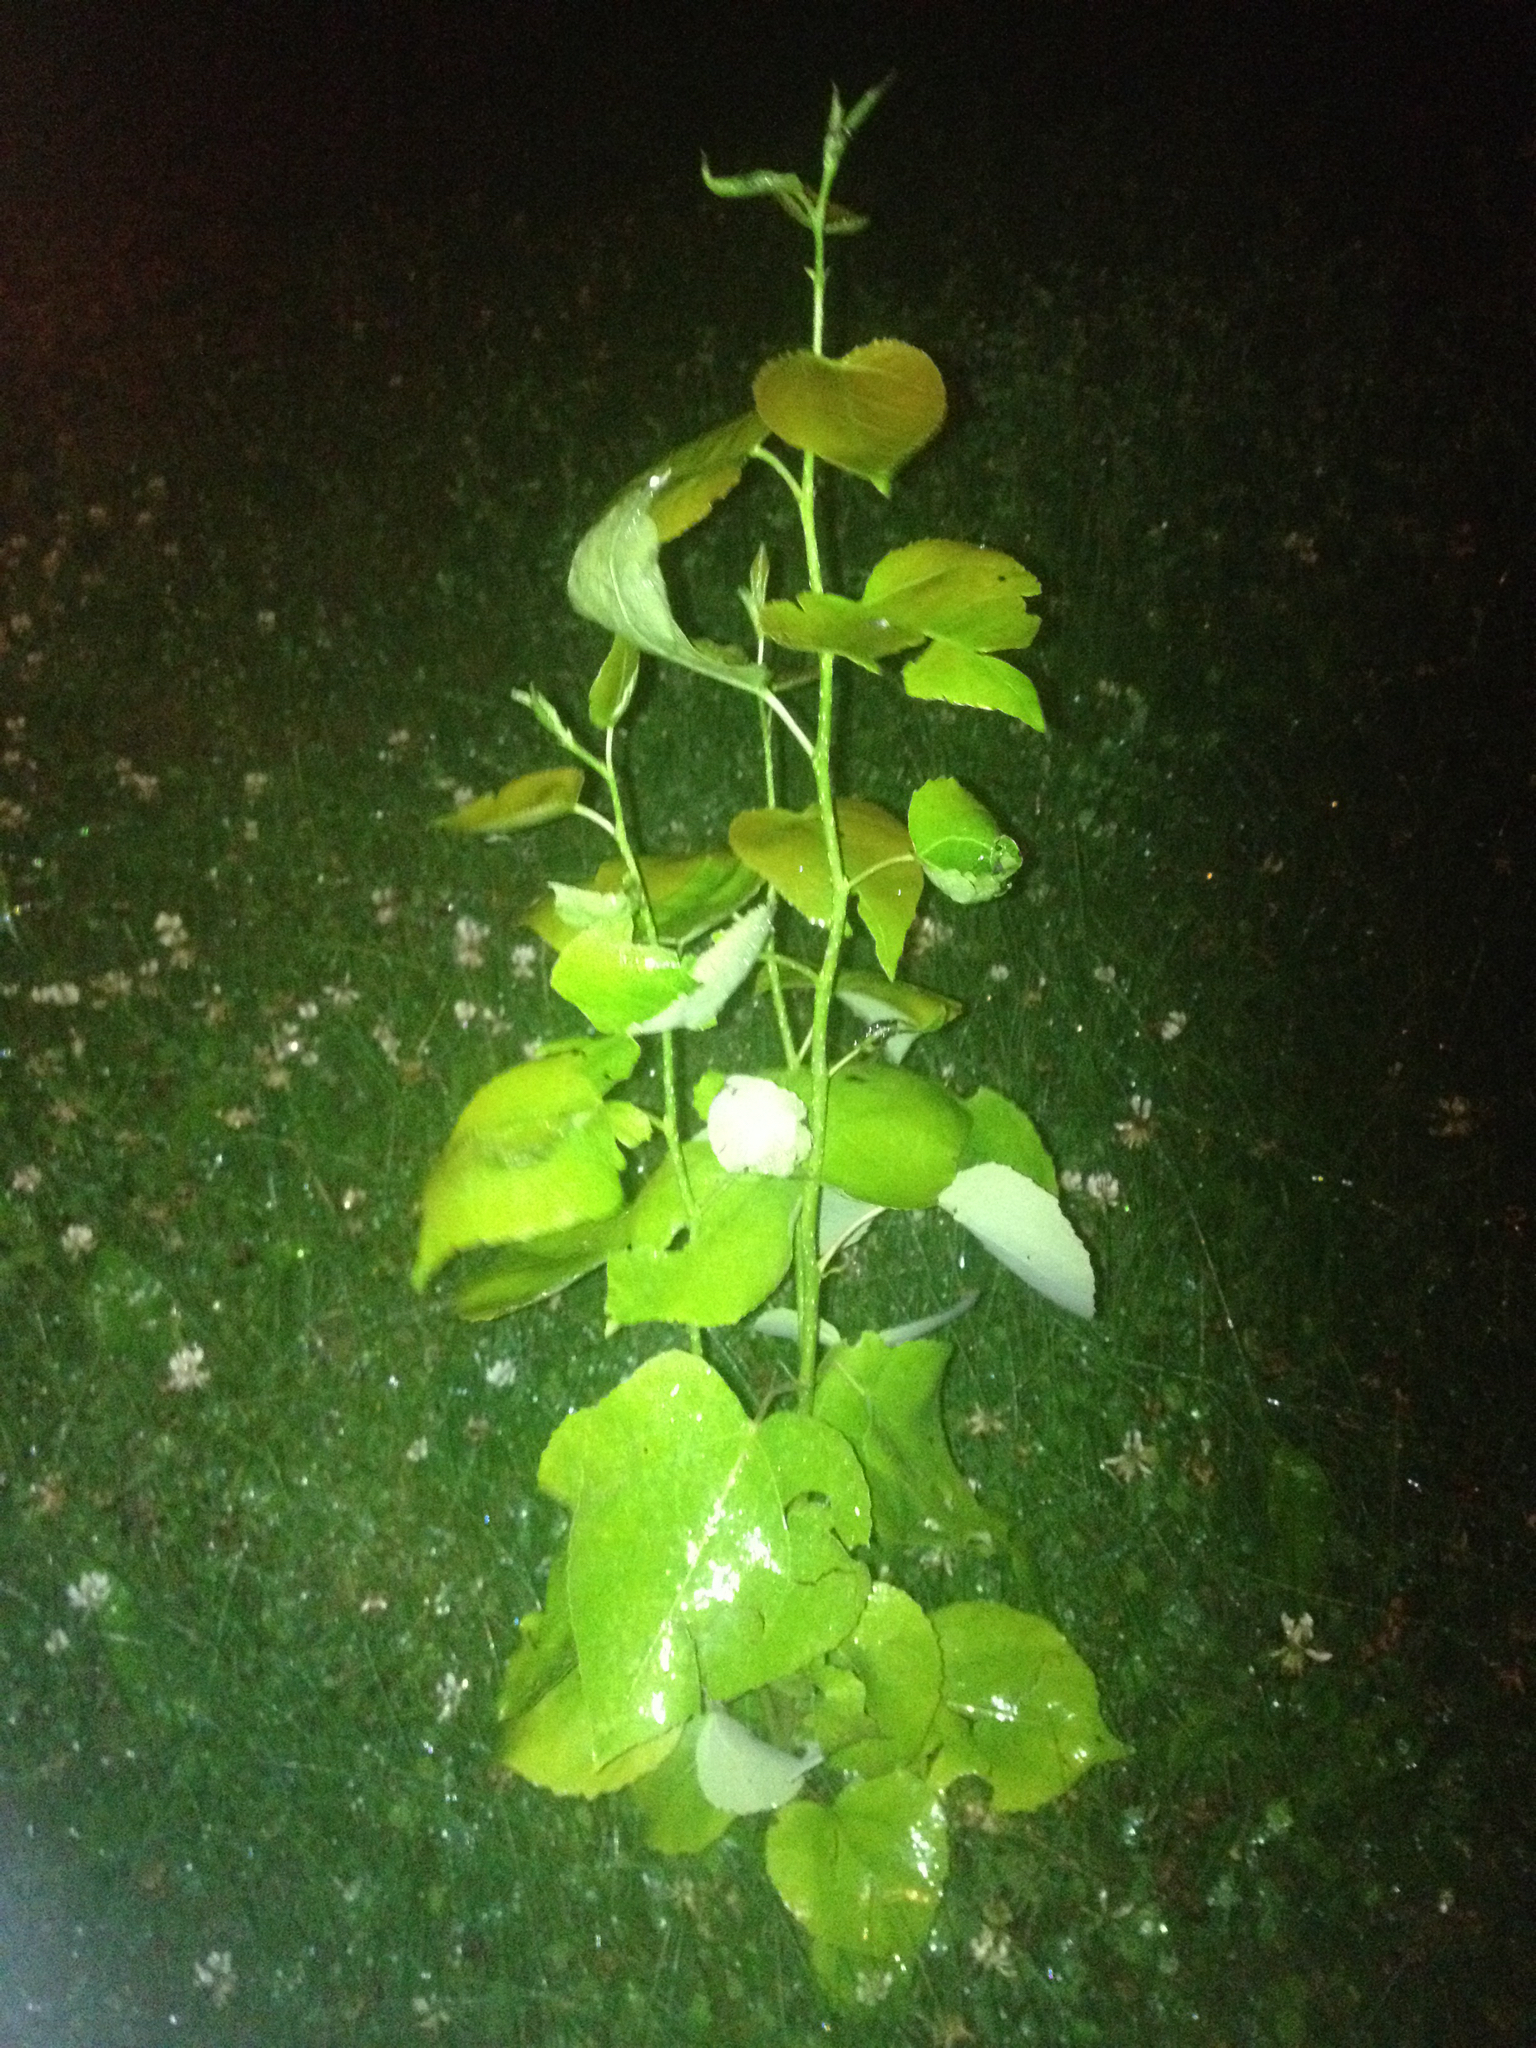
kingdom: Plantae
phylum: Tracheophyta
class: Magnoliopsida
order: Malpighiales
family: Salicaceae
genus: Populus
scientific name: Populus balsamifera
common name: Balsam poplar
